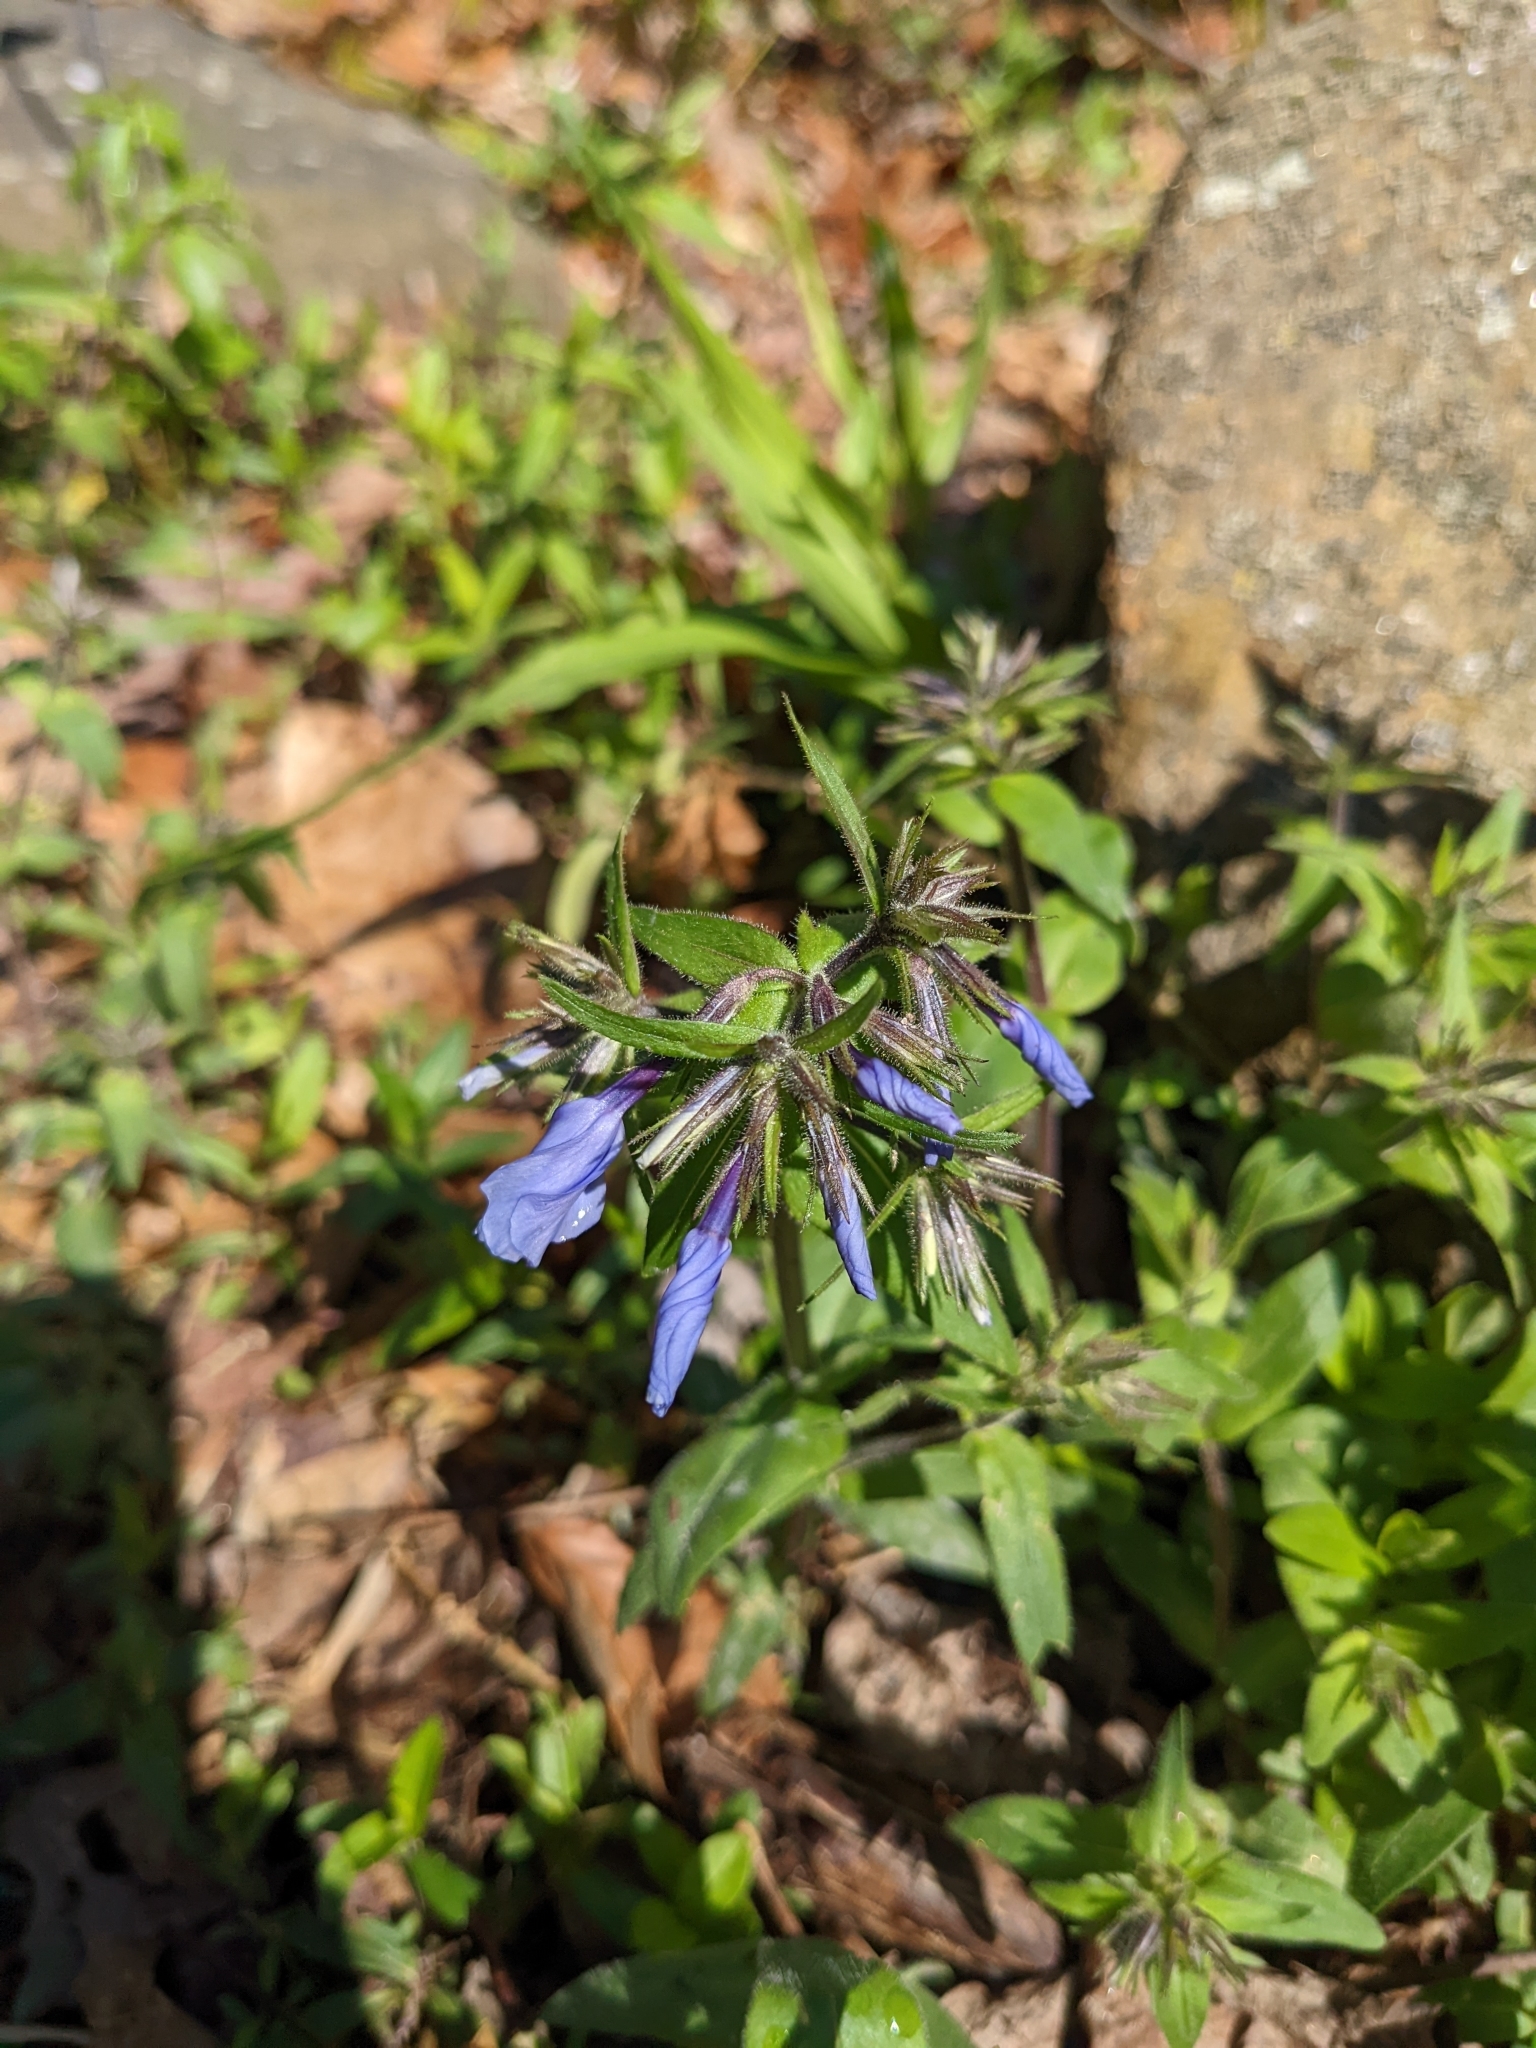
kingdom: Plantae
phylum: Tracheophyta
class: Magnoliopsida
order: Ericales
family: Polemoniaceae
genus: Phlox
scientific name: Phlox divaricata
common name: Blue phlox
